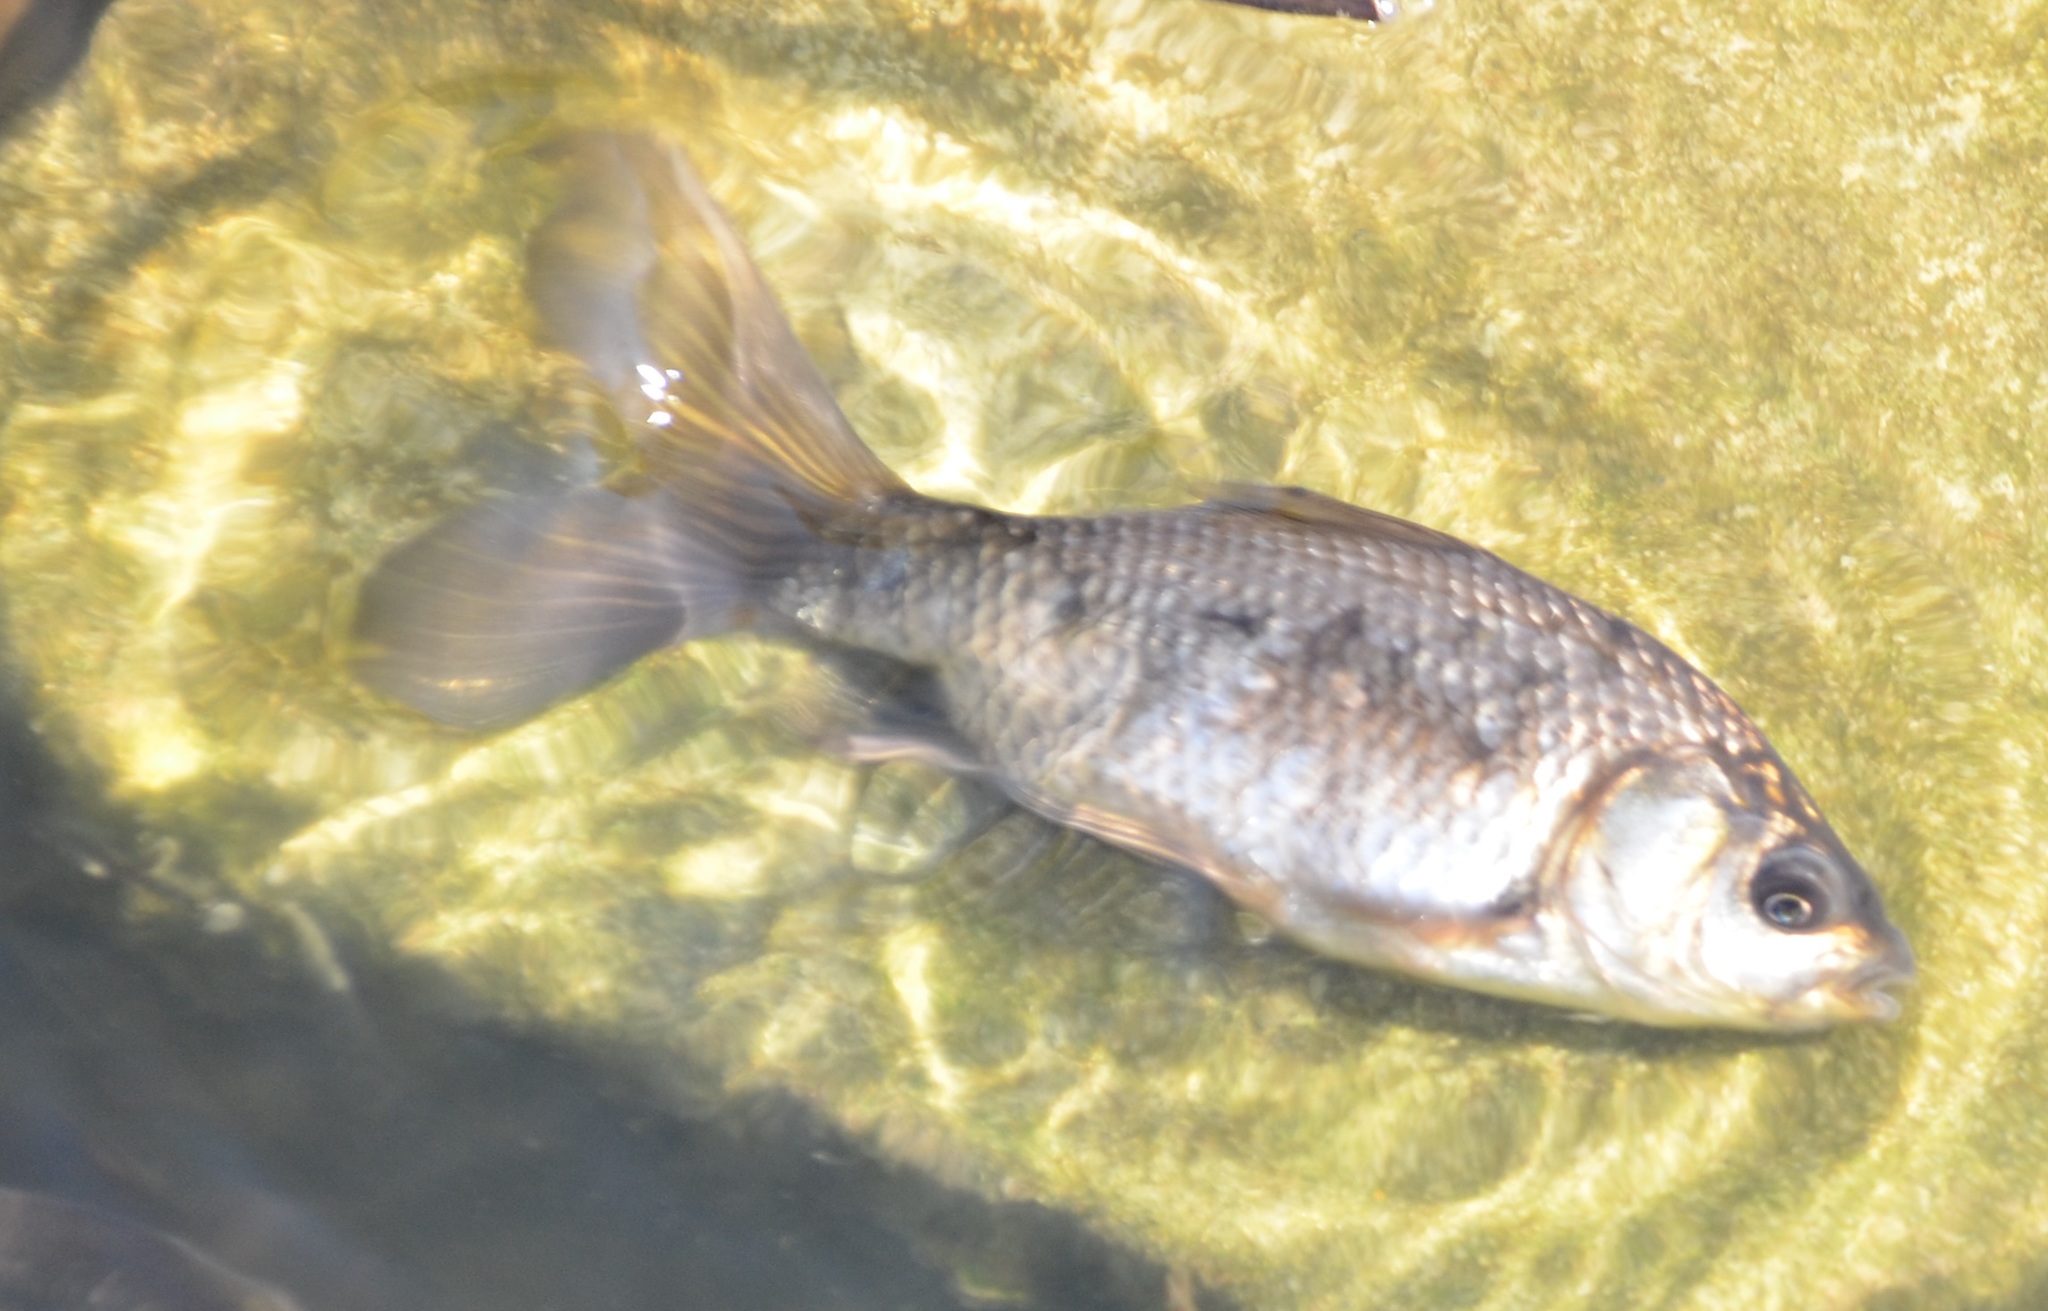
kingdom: Animalia
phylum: Chordata
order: Cypriniformes
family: Cyprinidae
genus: Carassius
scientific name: Carassius auratus
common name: Goldfish
